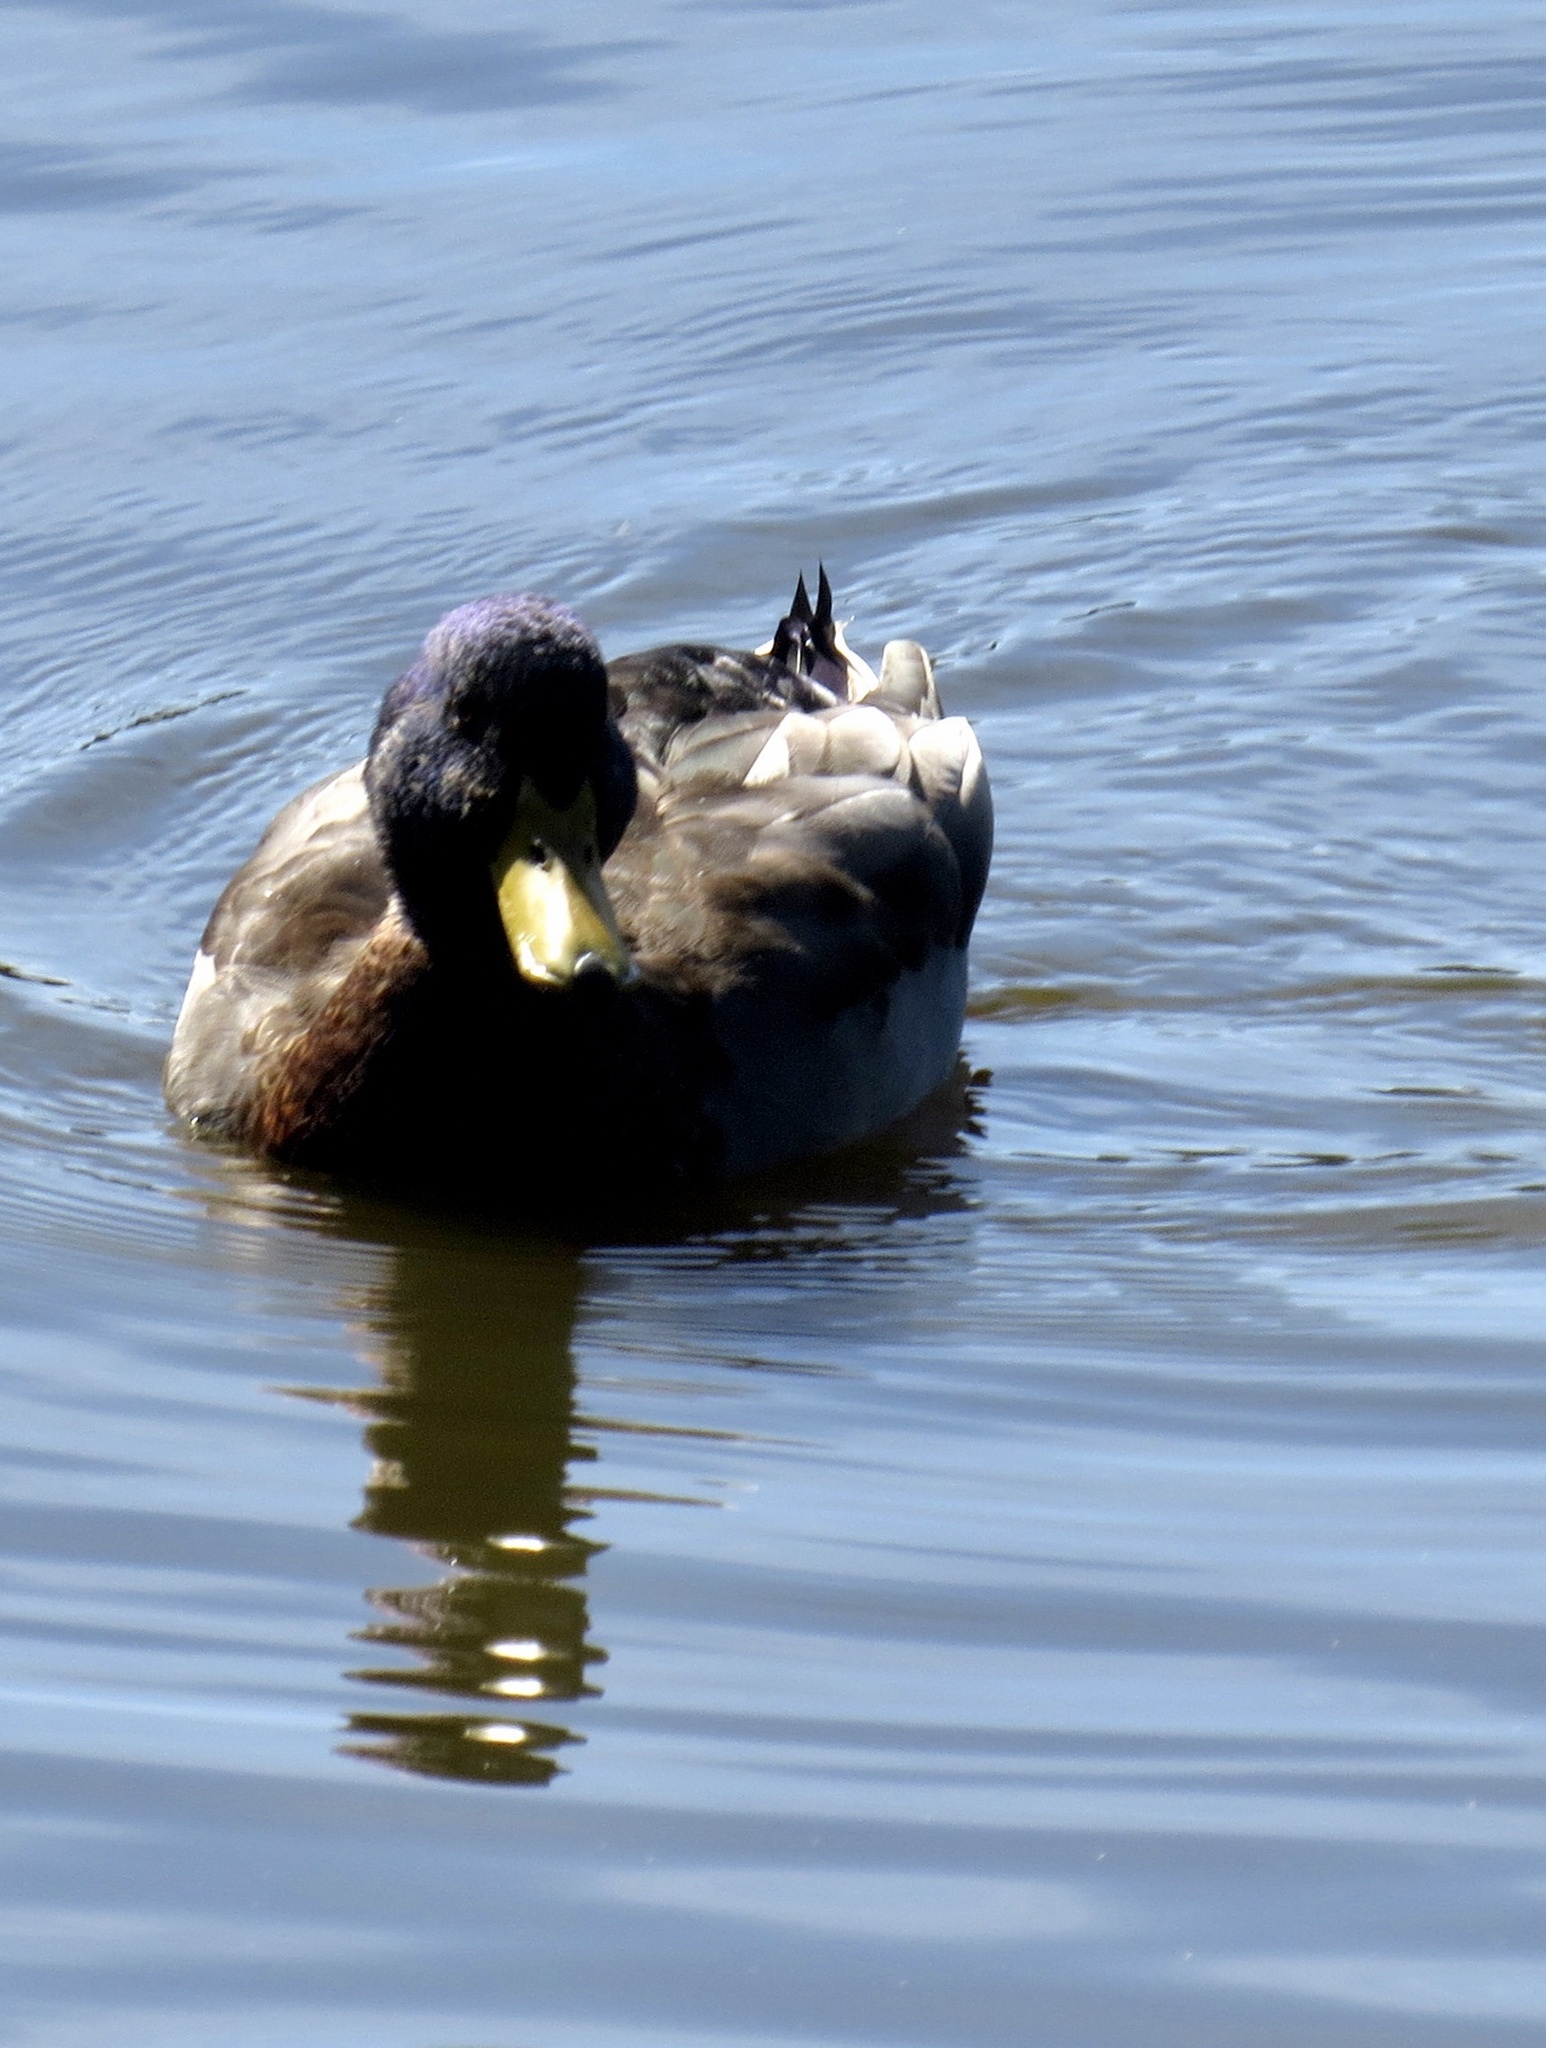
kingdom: Animalia
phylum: Chordata
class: Aves
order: Anseriformes
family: Anatidae
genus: Anas
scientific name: Anas platyrhynchos
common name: Mallard
